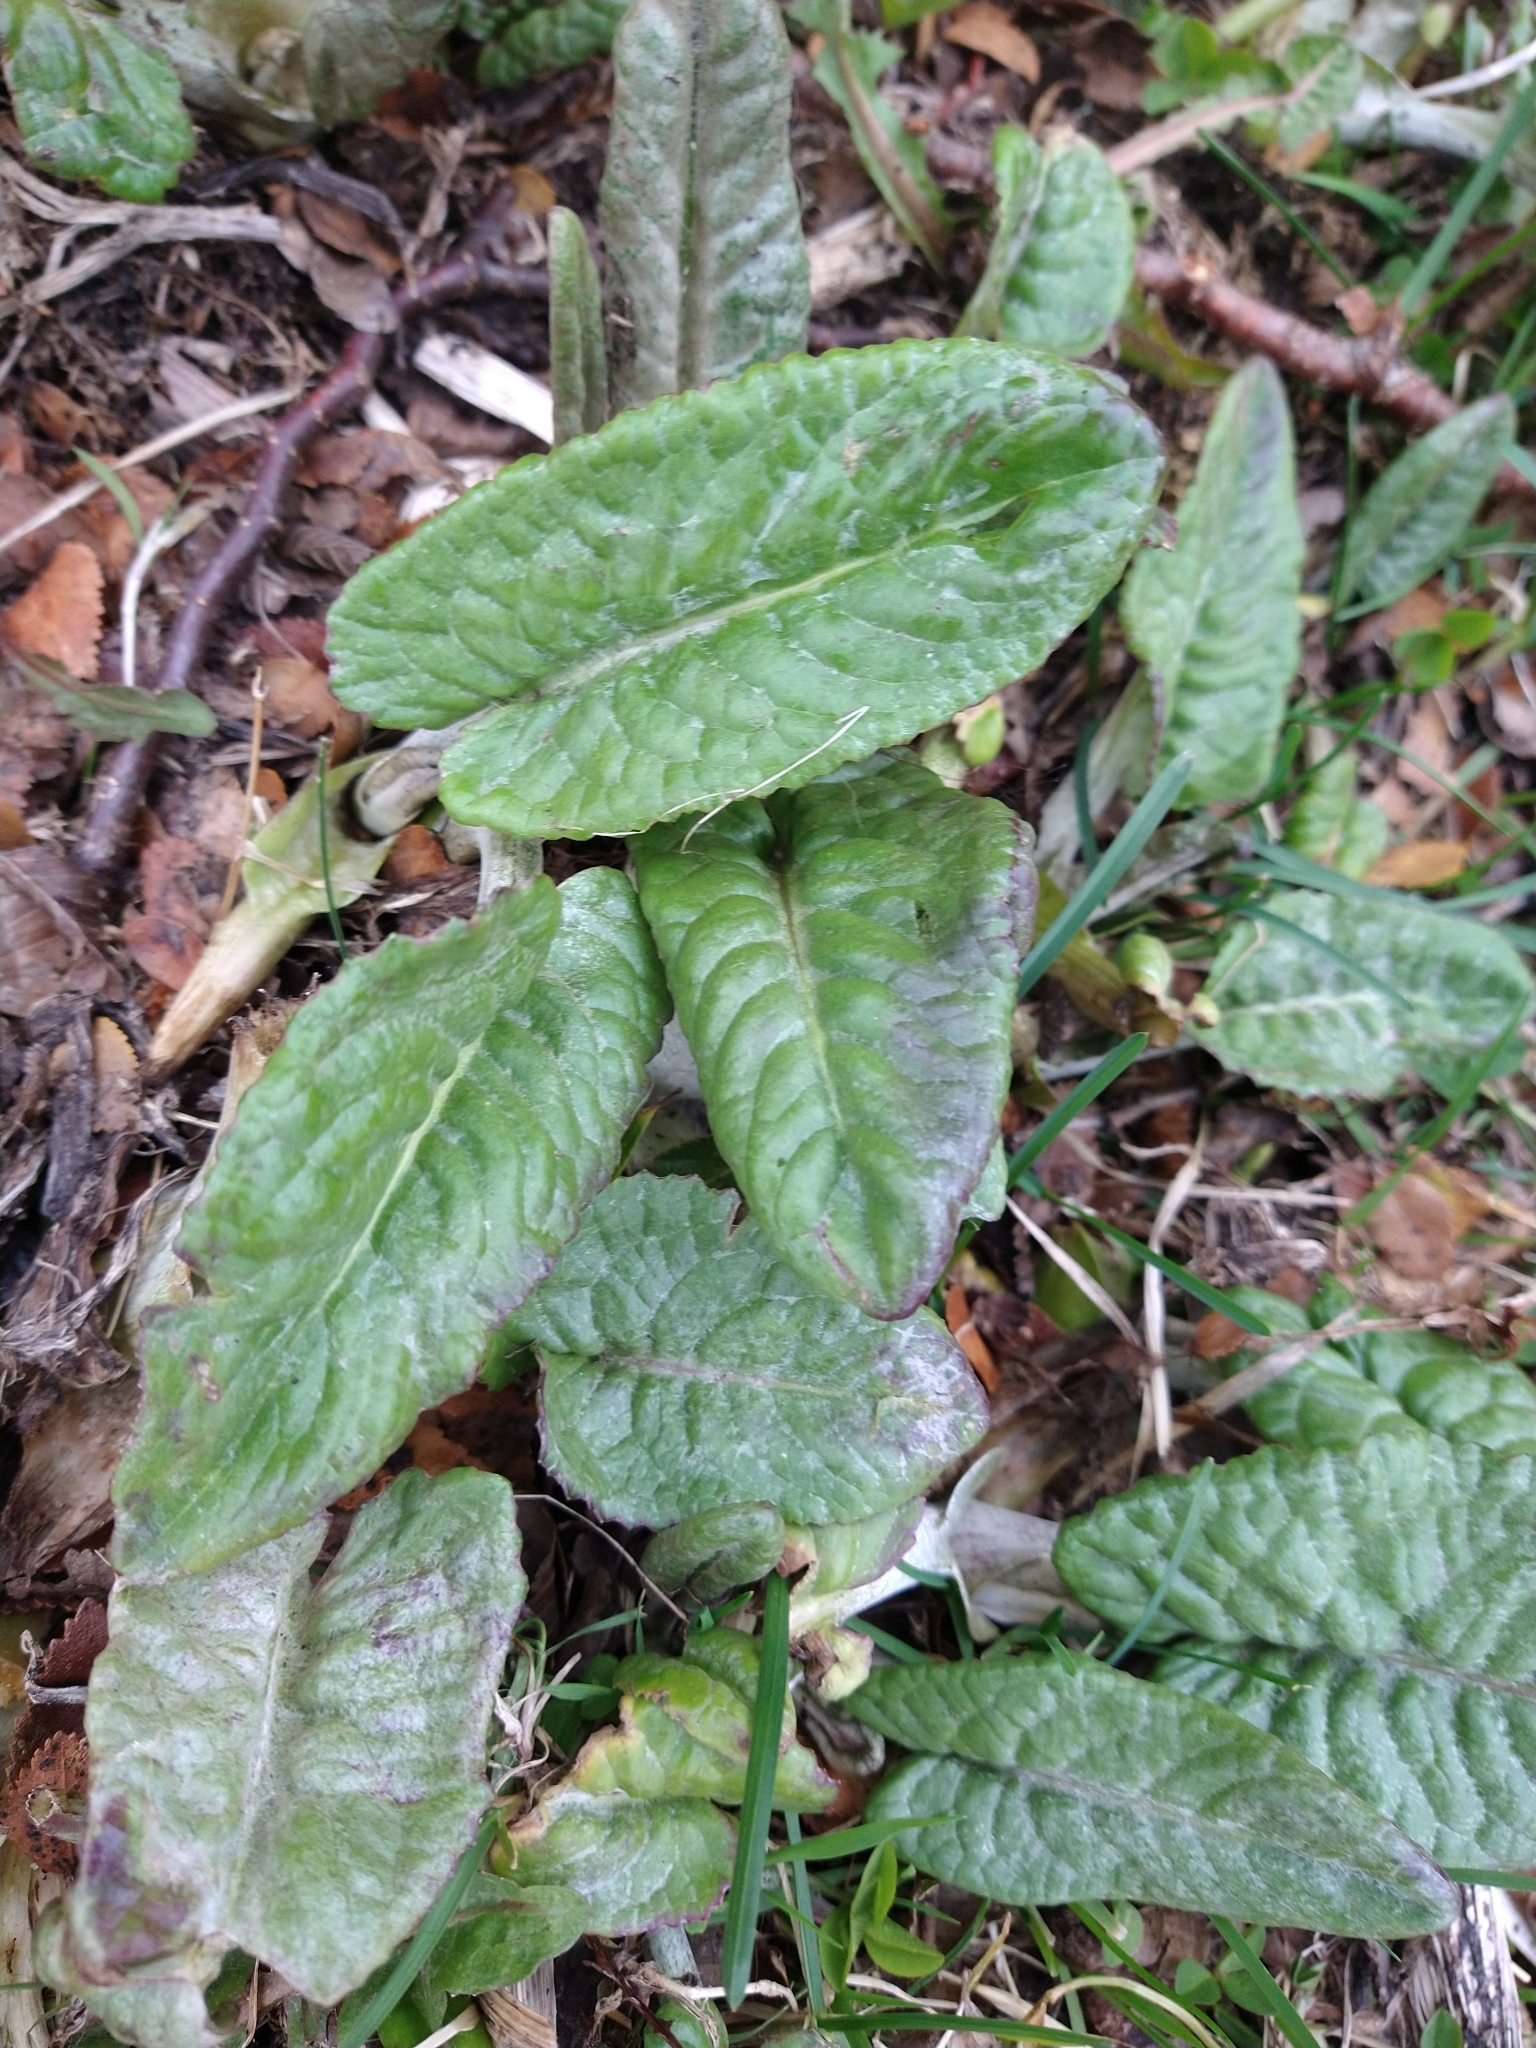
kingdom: Plantae
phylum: Tracheophyta
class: Magnoliopsida
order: Ericales
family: Primulaceae
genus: Primula
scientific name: Primula magellanica
